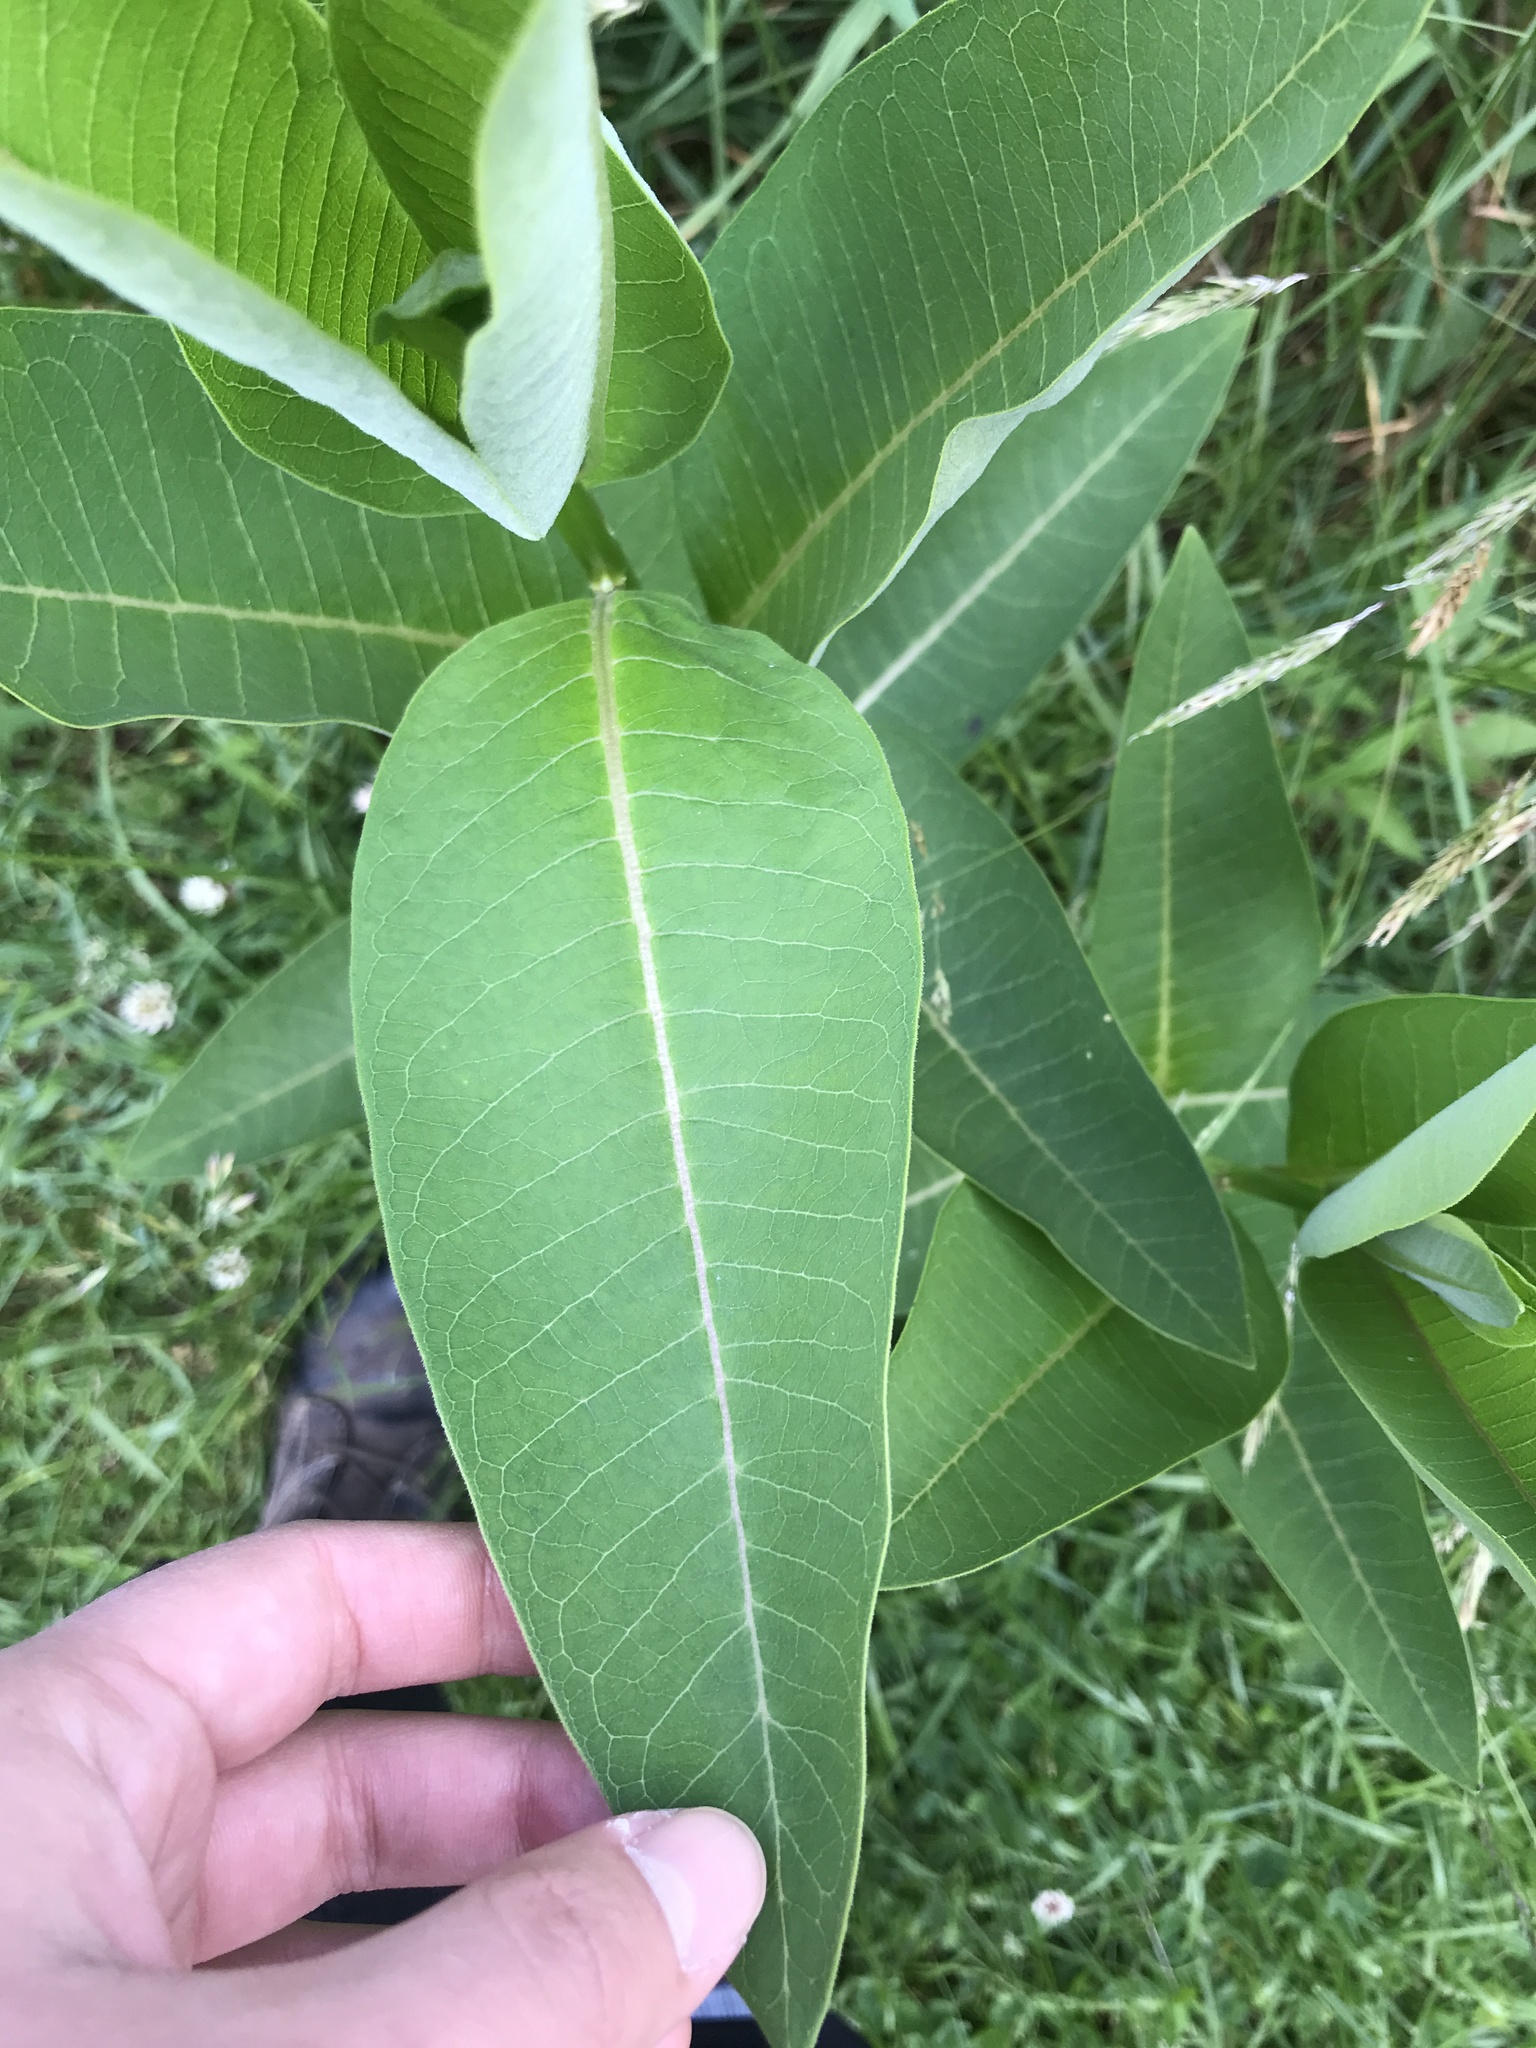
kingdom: Plantae
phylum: Tracheophyta
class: Magnoliopsida
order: Gentianales
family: Apocynaceae
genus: Asclepias
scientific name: Asclepias syriaca
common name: Common milkweed
